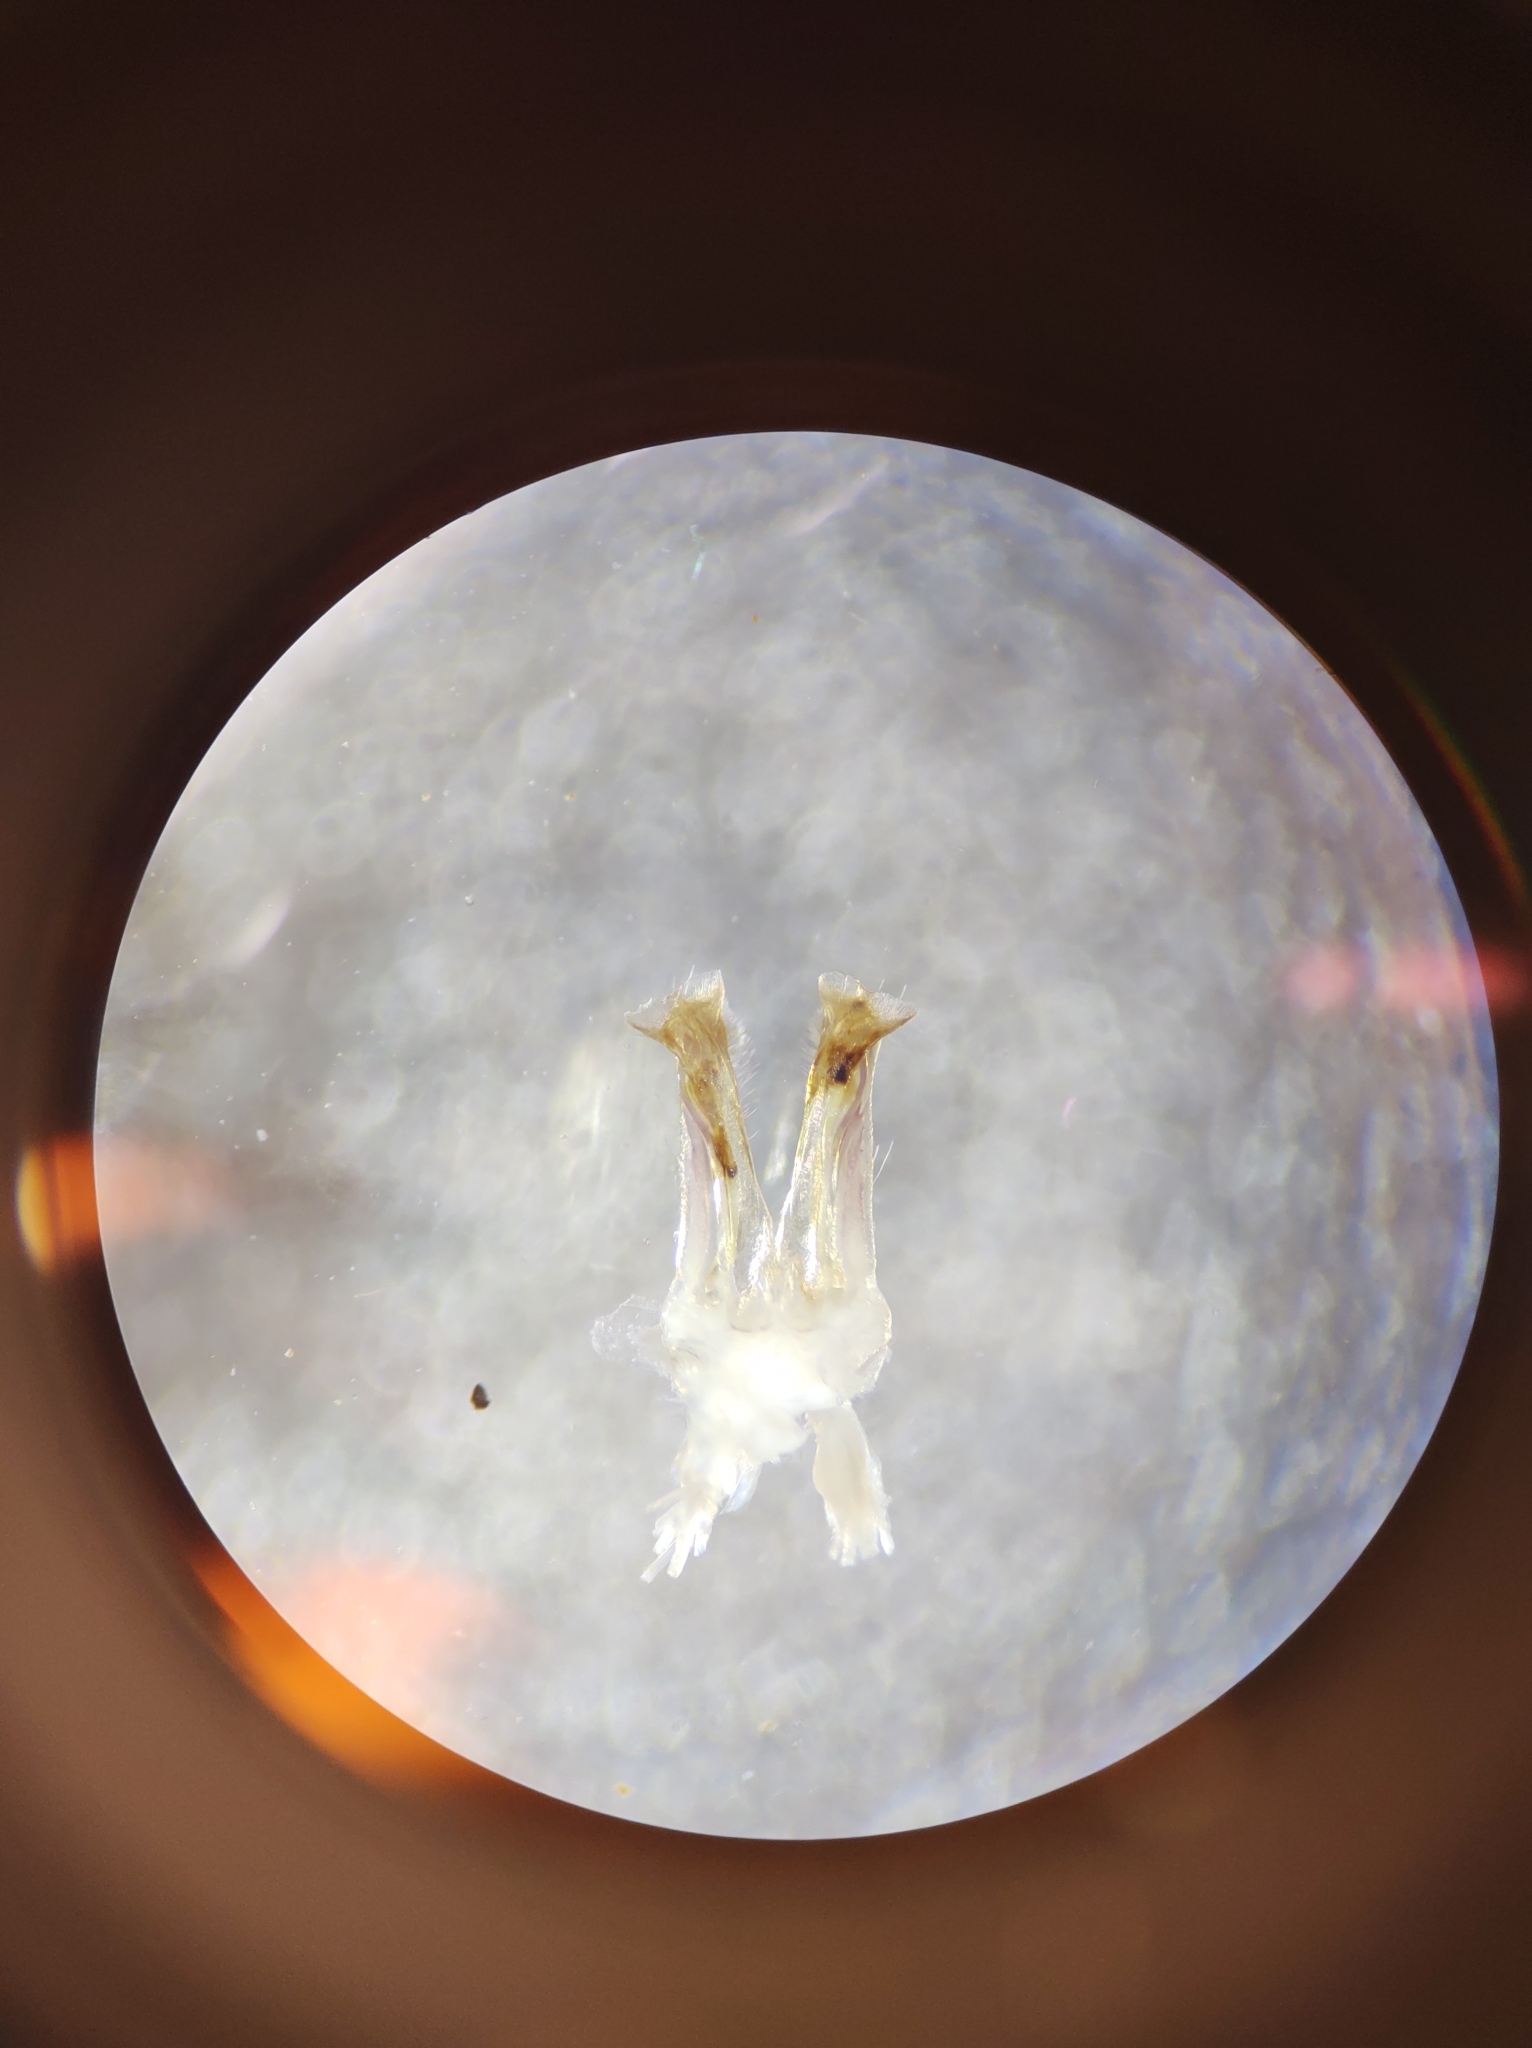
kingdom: Animalia
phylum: Arthropoda
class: Diplopoda
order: Julida
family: Parajulidae
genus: Ptyoiulus
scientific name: Ptyoiulus impressus
